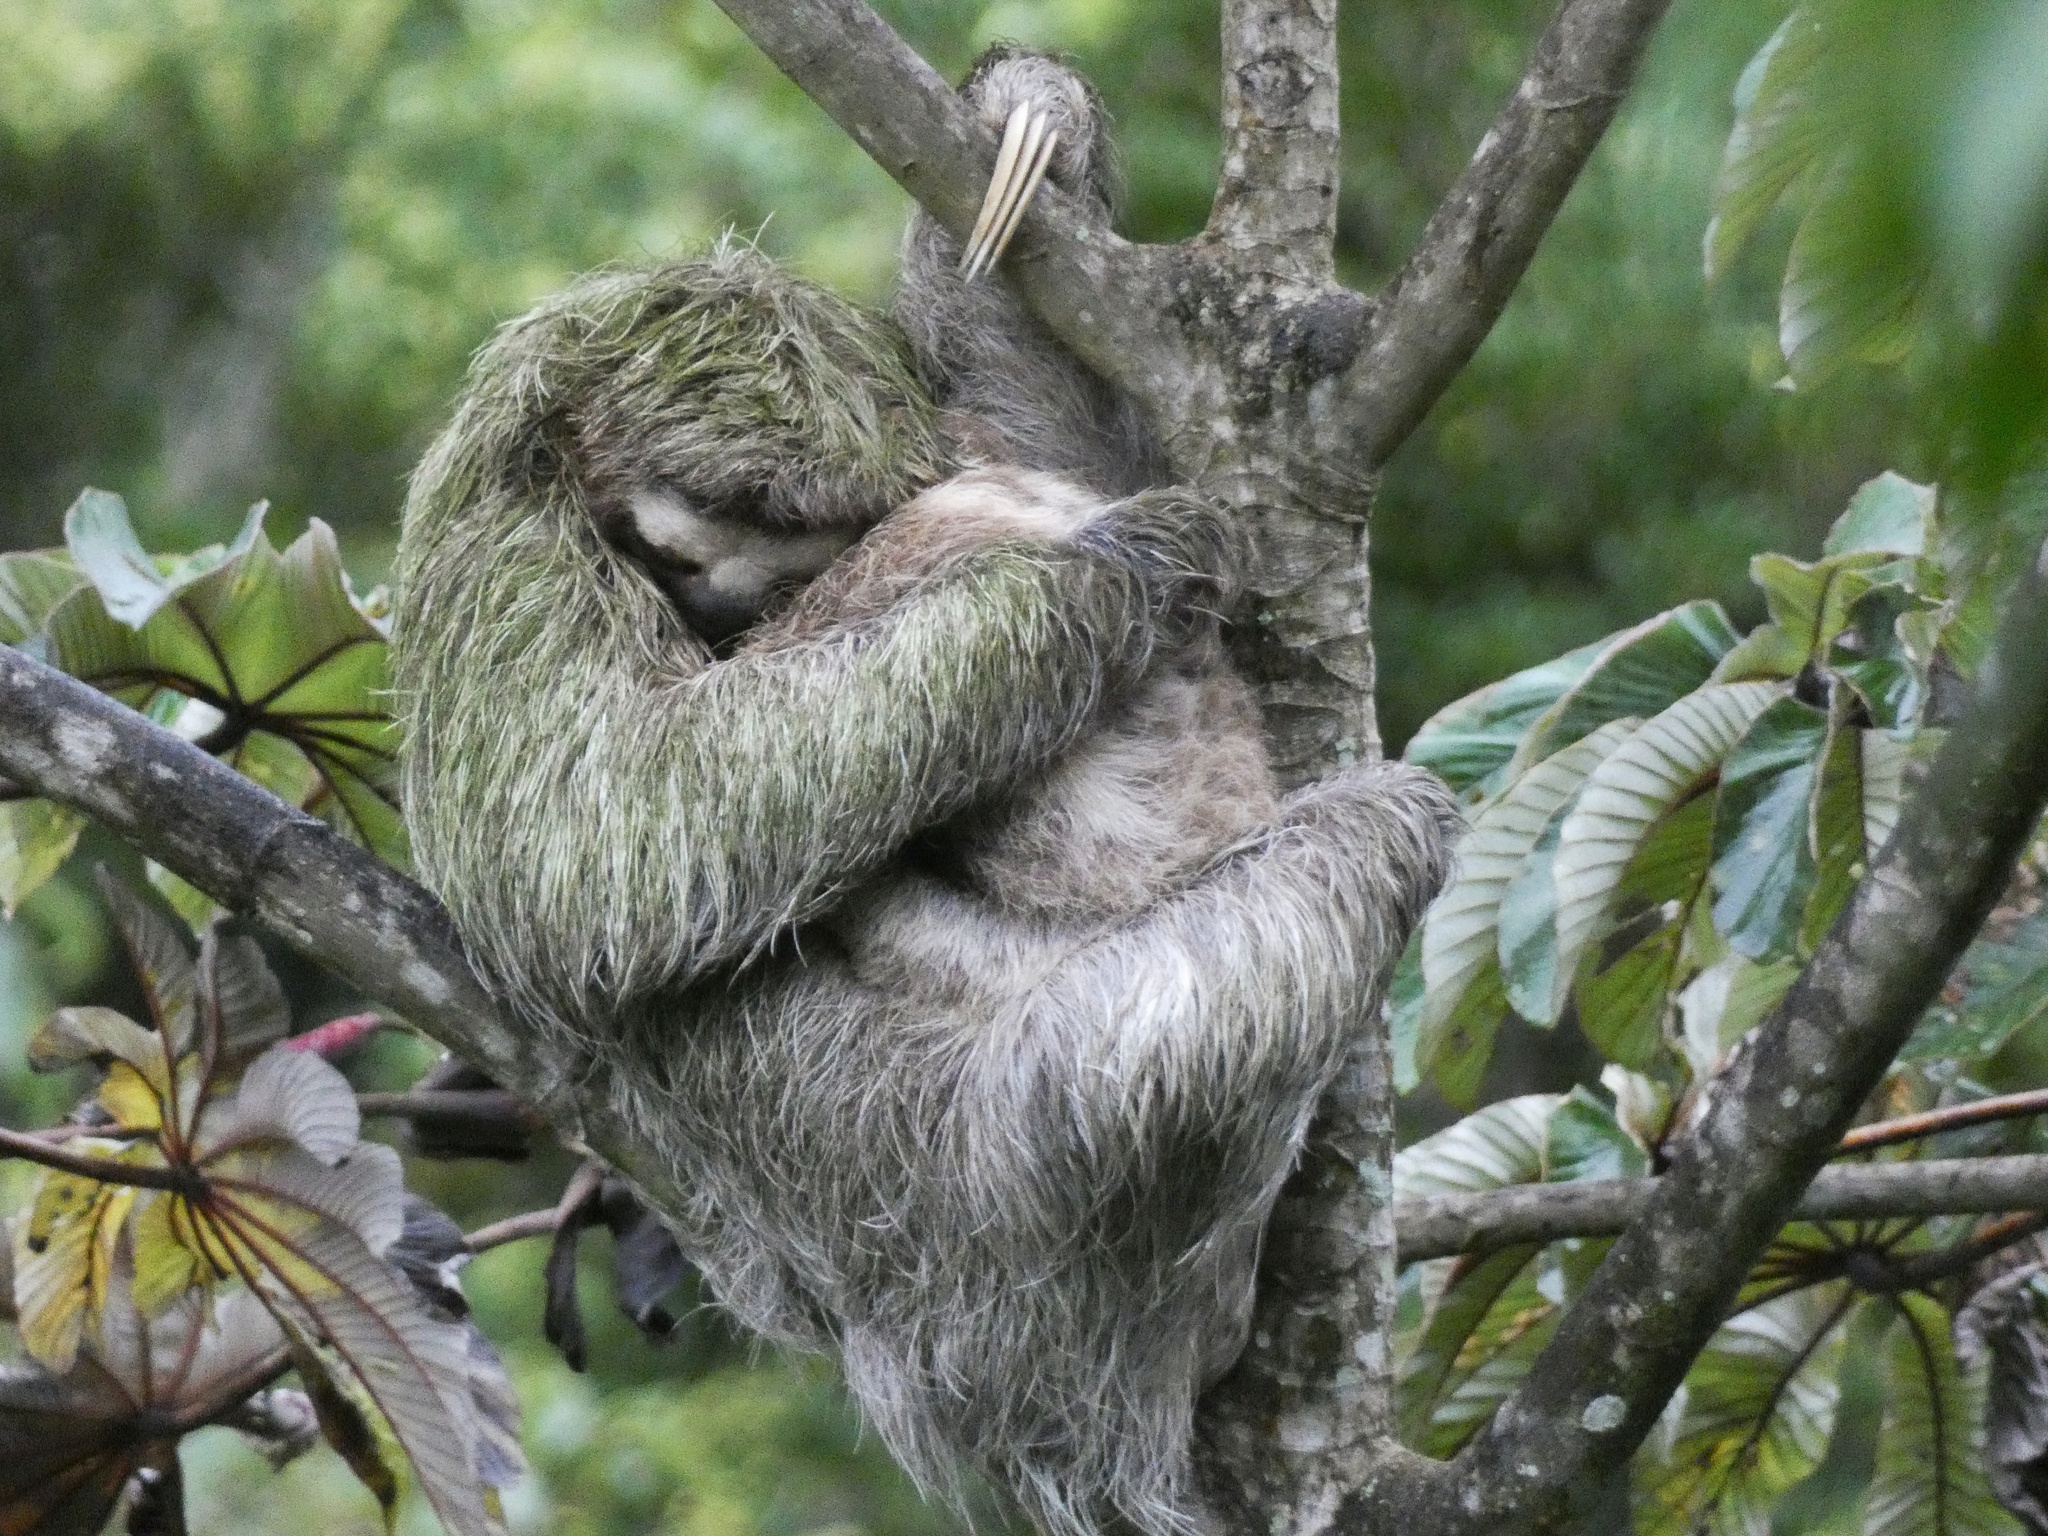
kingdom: Animalia
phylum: Chordata
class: Mammalia
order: Pilosa
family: Bradypodidae
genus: Bradypus
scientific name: Bradypus variegatus
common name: Brown-throated three-toed sloth
